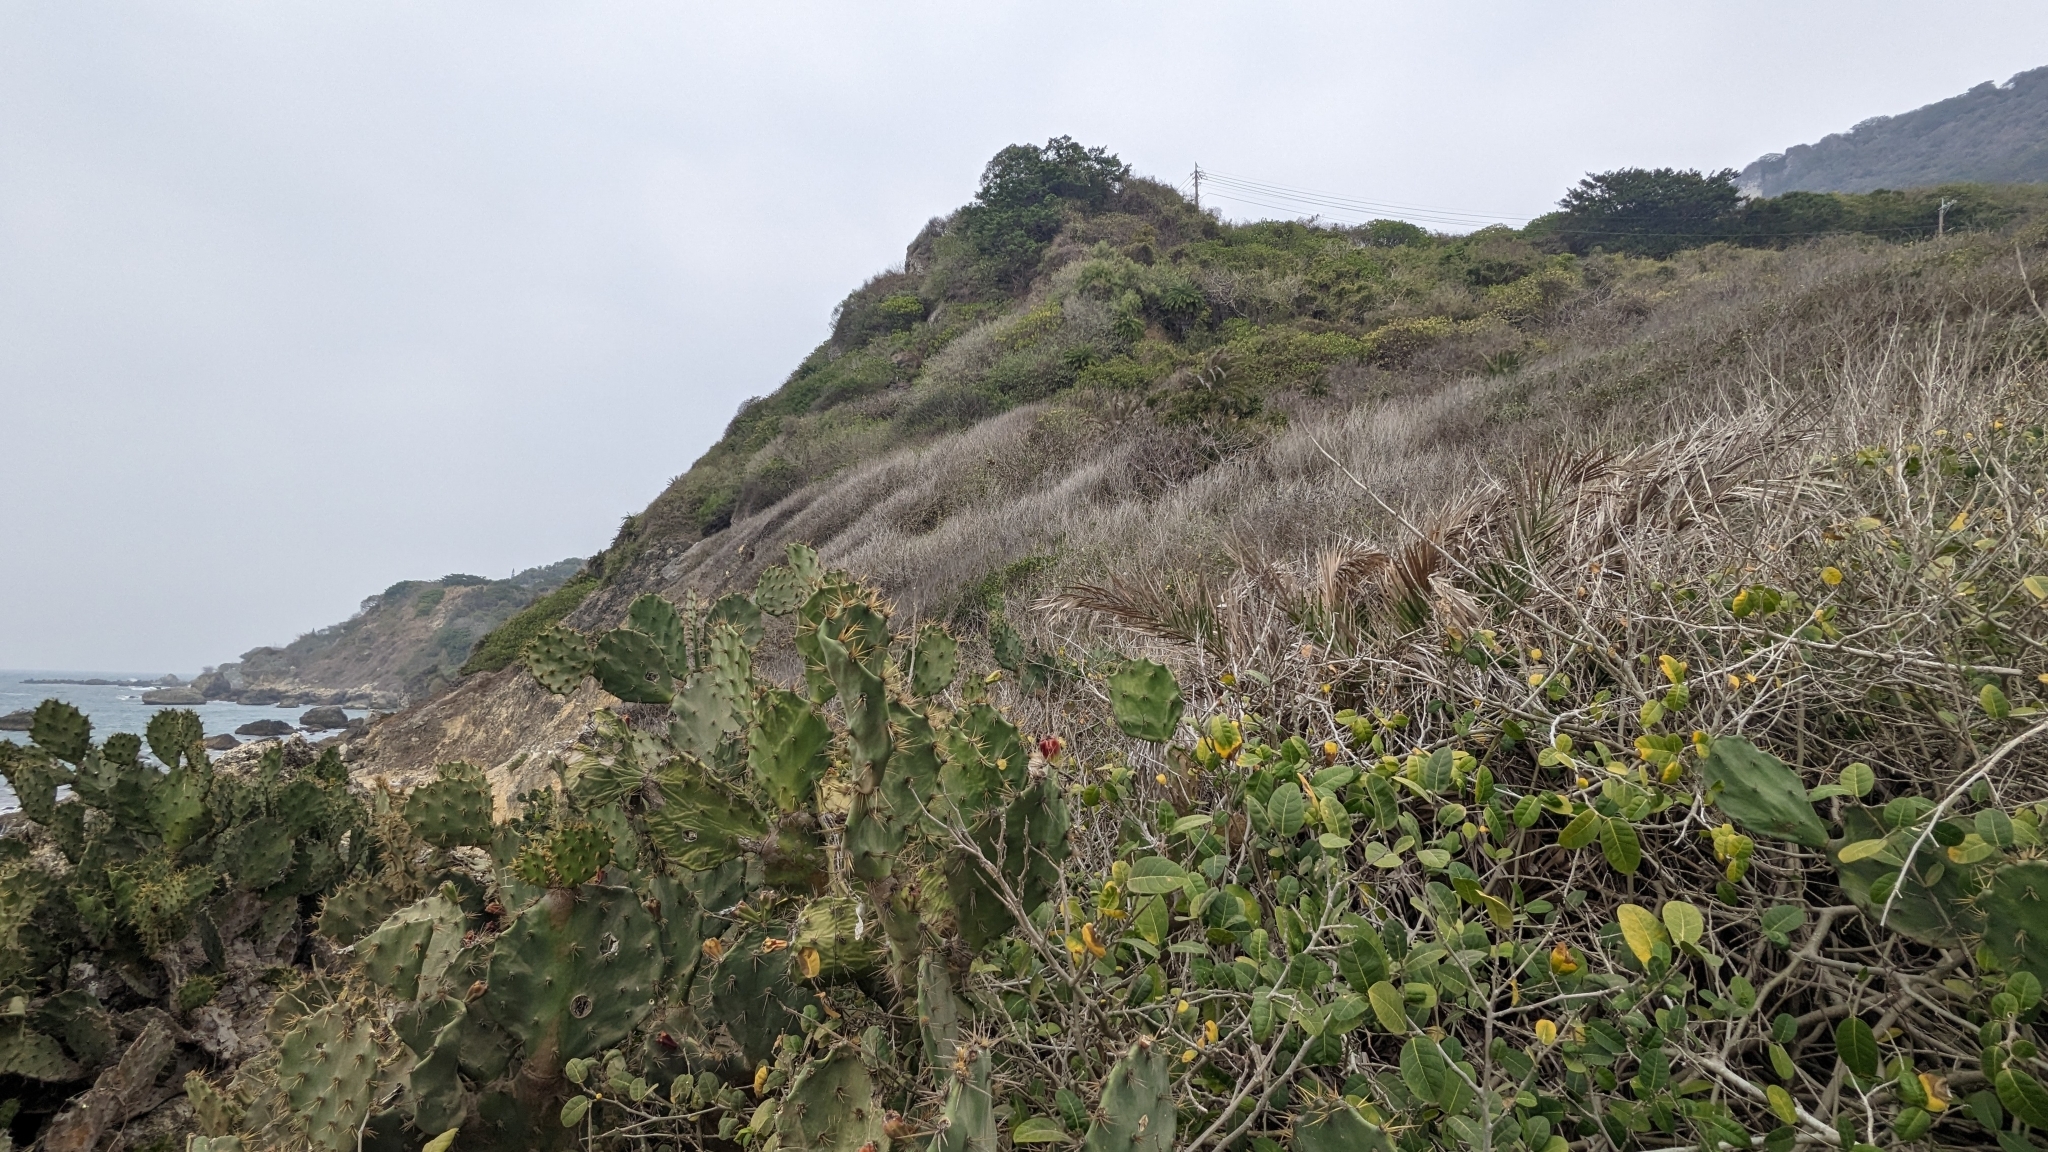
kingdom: Plantae
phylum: Tracheophyta
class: Magnoliopsida
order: Caryophyllales
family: Cactaceae
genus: Opuntia
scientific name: Opuntia dillenii
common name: Sour prickle
